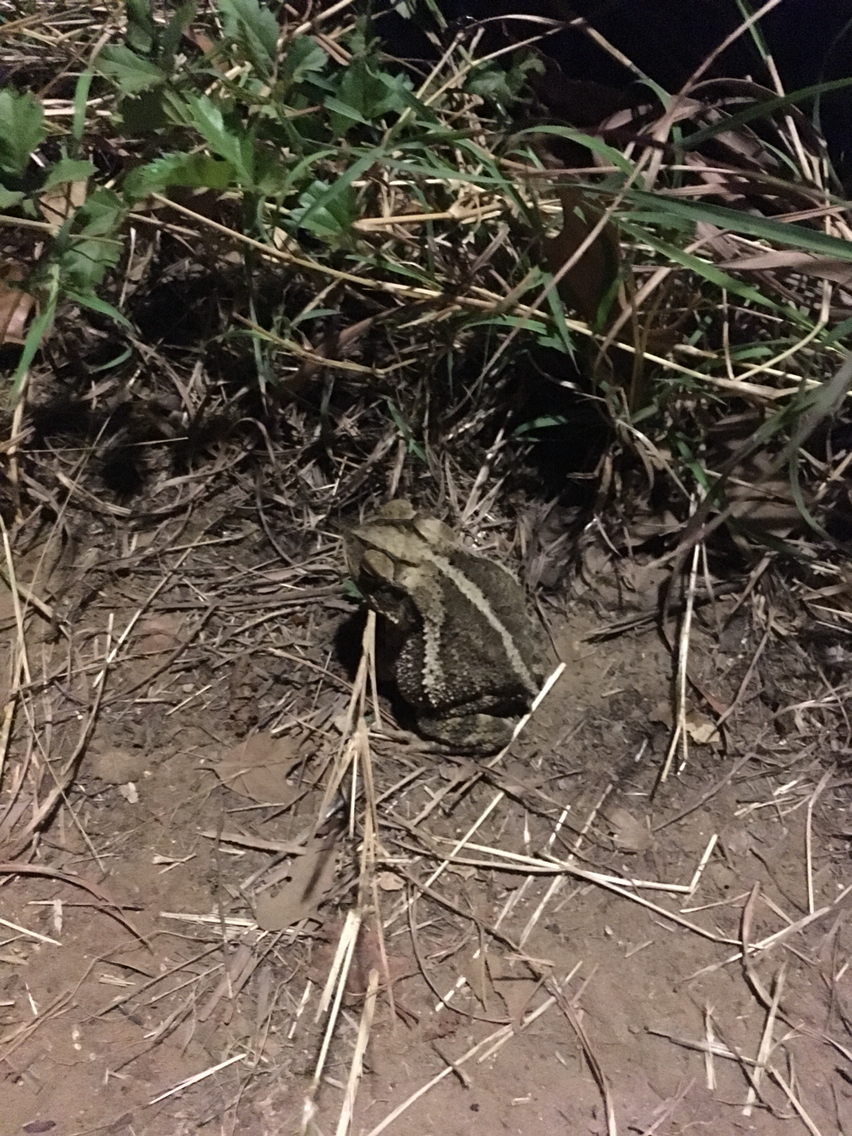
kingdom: Animalia
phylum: Chordata
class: Amphibia
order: Anura
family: Bufonidae
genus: Incilius
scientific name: Incilius nebulifer
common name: Gulf coast toad
